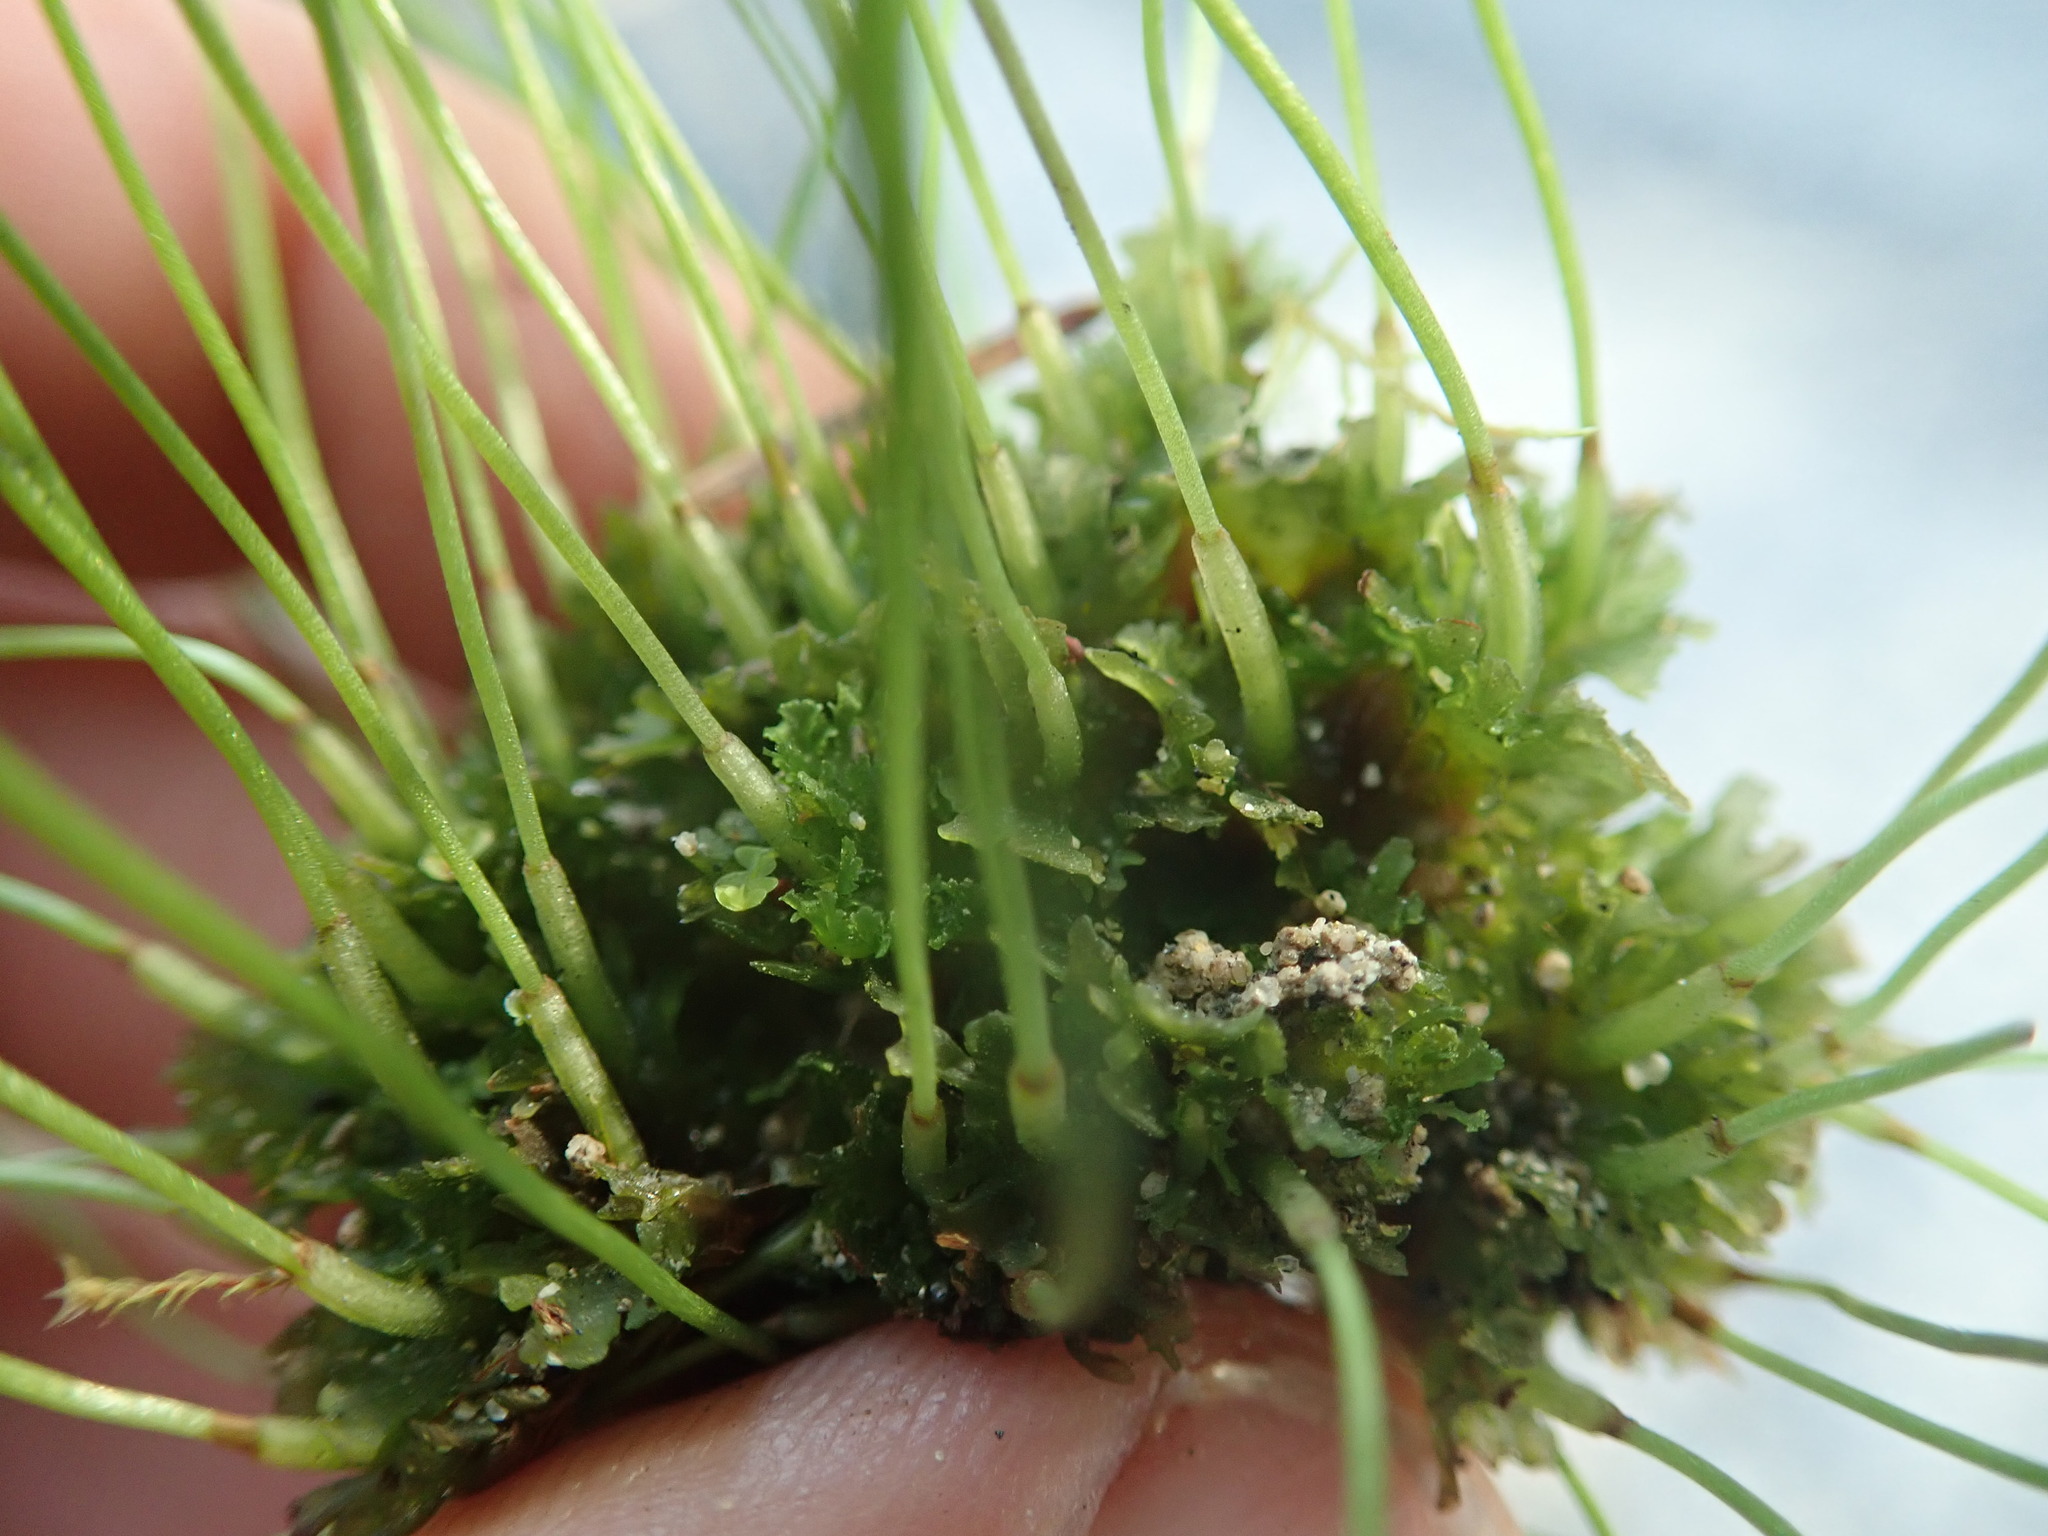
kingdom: Plantae
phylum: Anthocerotophyta
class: Anthocerotopsida
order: Anthocerotales
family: Anthocerotaceae
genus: Anthoceros
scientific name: Anthoceros fusiformis
